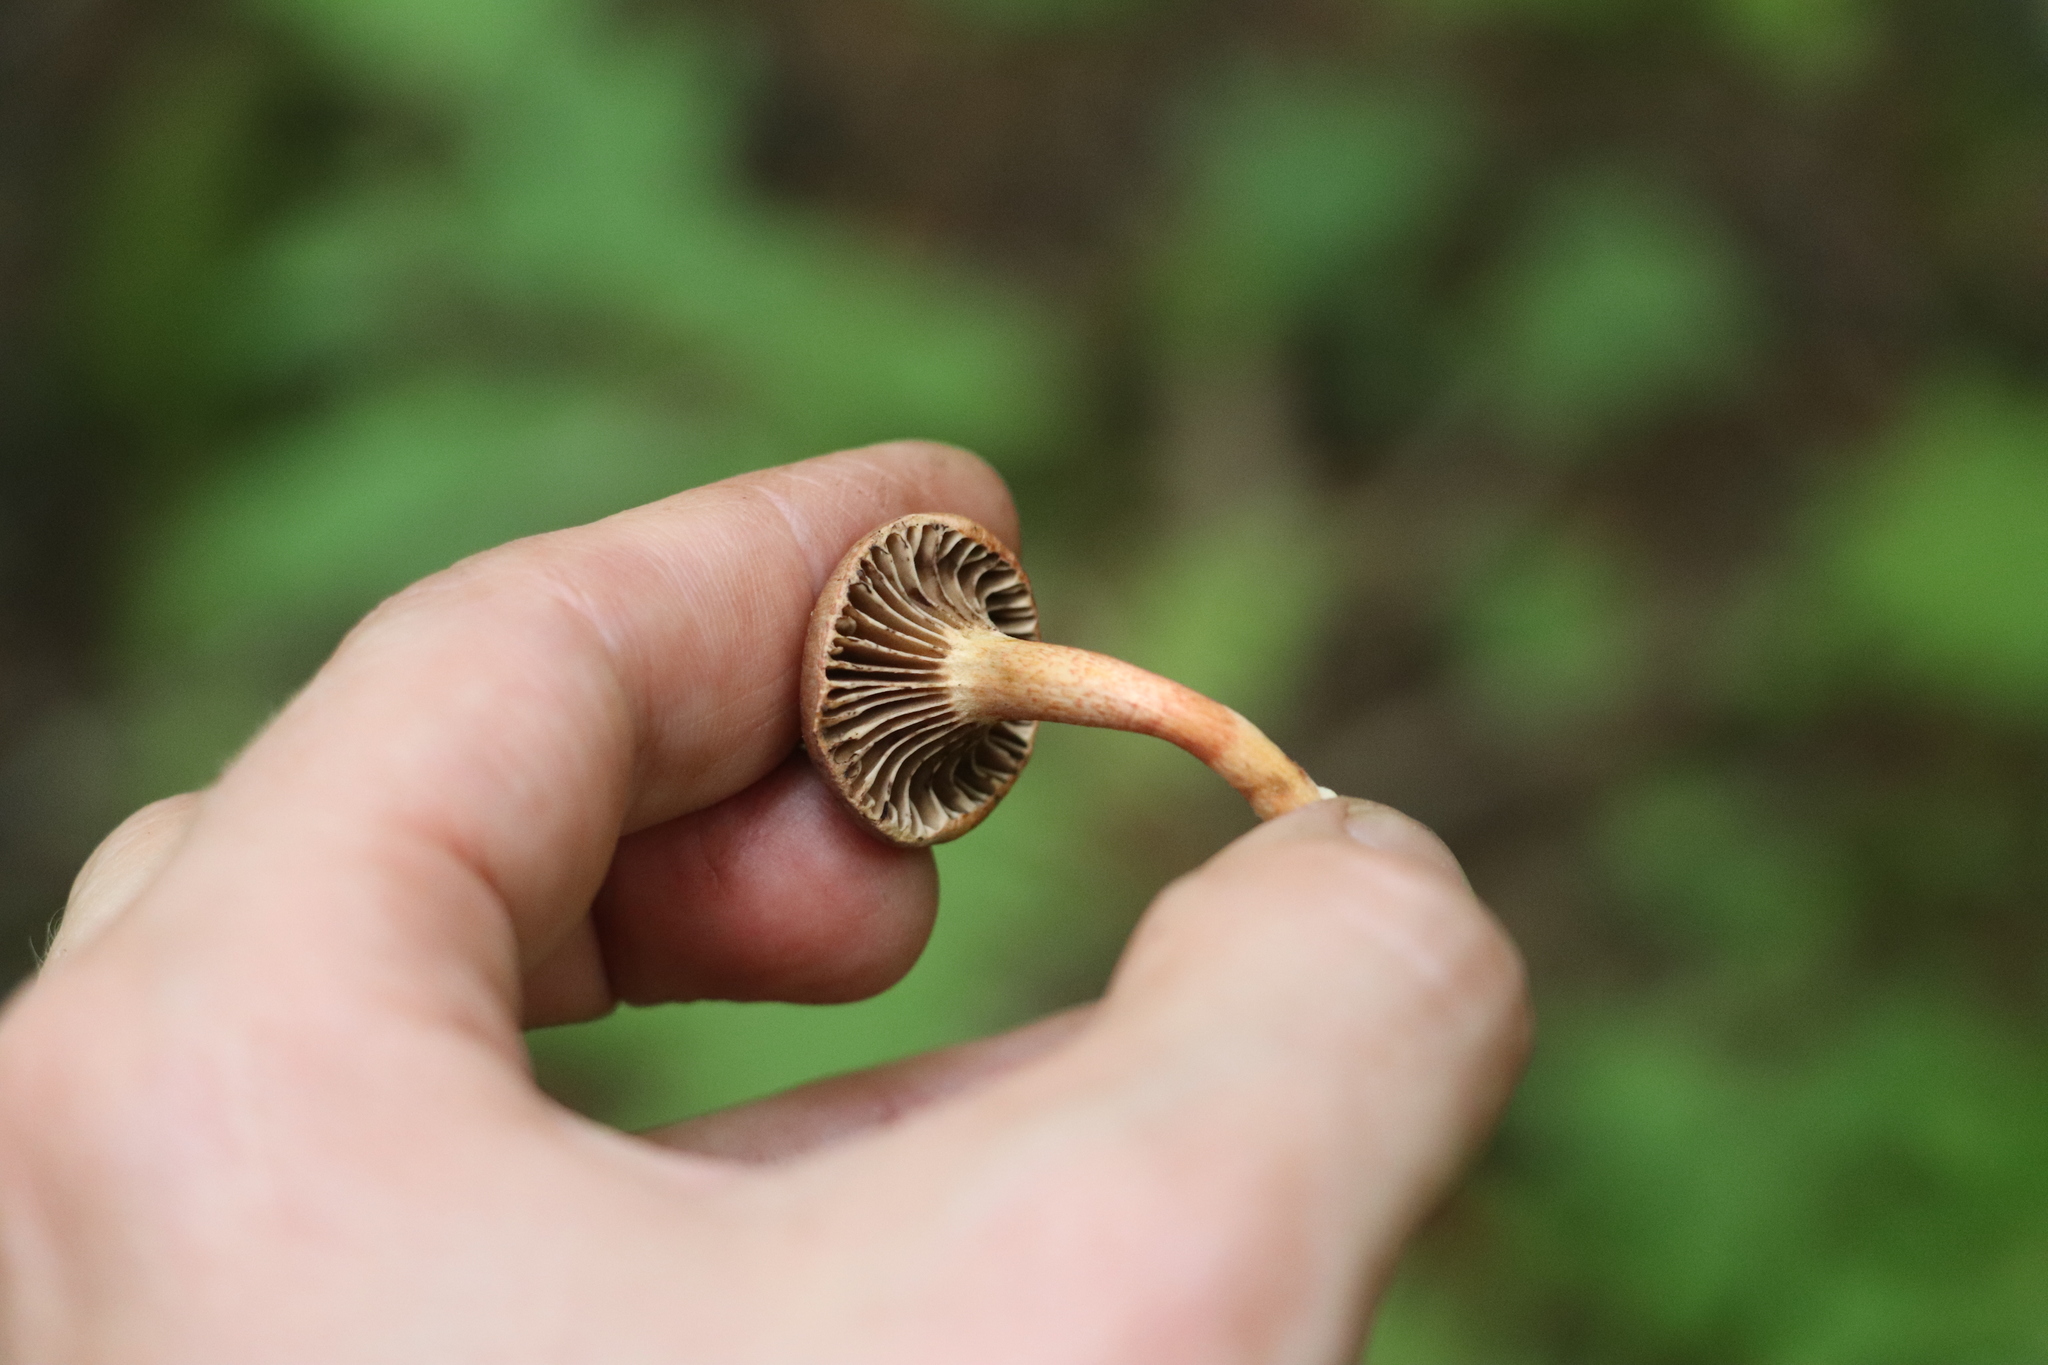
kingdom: Fungi
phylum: Basidiomycota
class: Agaricomycetes
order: Boletales
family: Gomphidiaceae
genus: Chroogomphus
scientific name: Chroogomphus rutilus
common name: Copper spike
